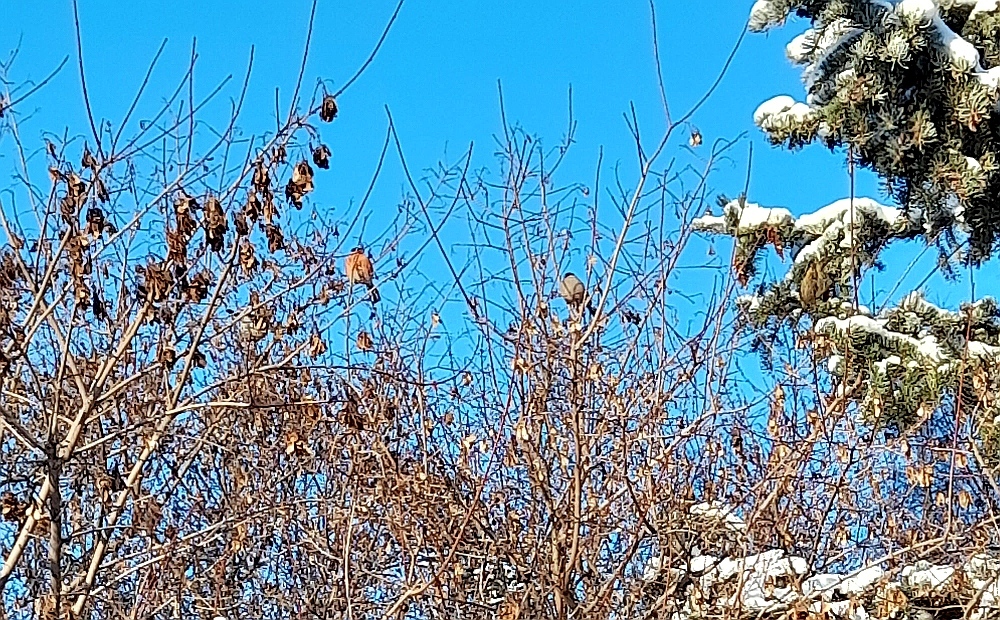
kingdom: Animalia
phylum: Chordata
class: Aves
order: Passeriformes
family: Fringillidae
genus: Pyrrhula
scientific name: Pyrrhula pyrrhula
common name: Eurasian bullfinch
